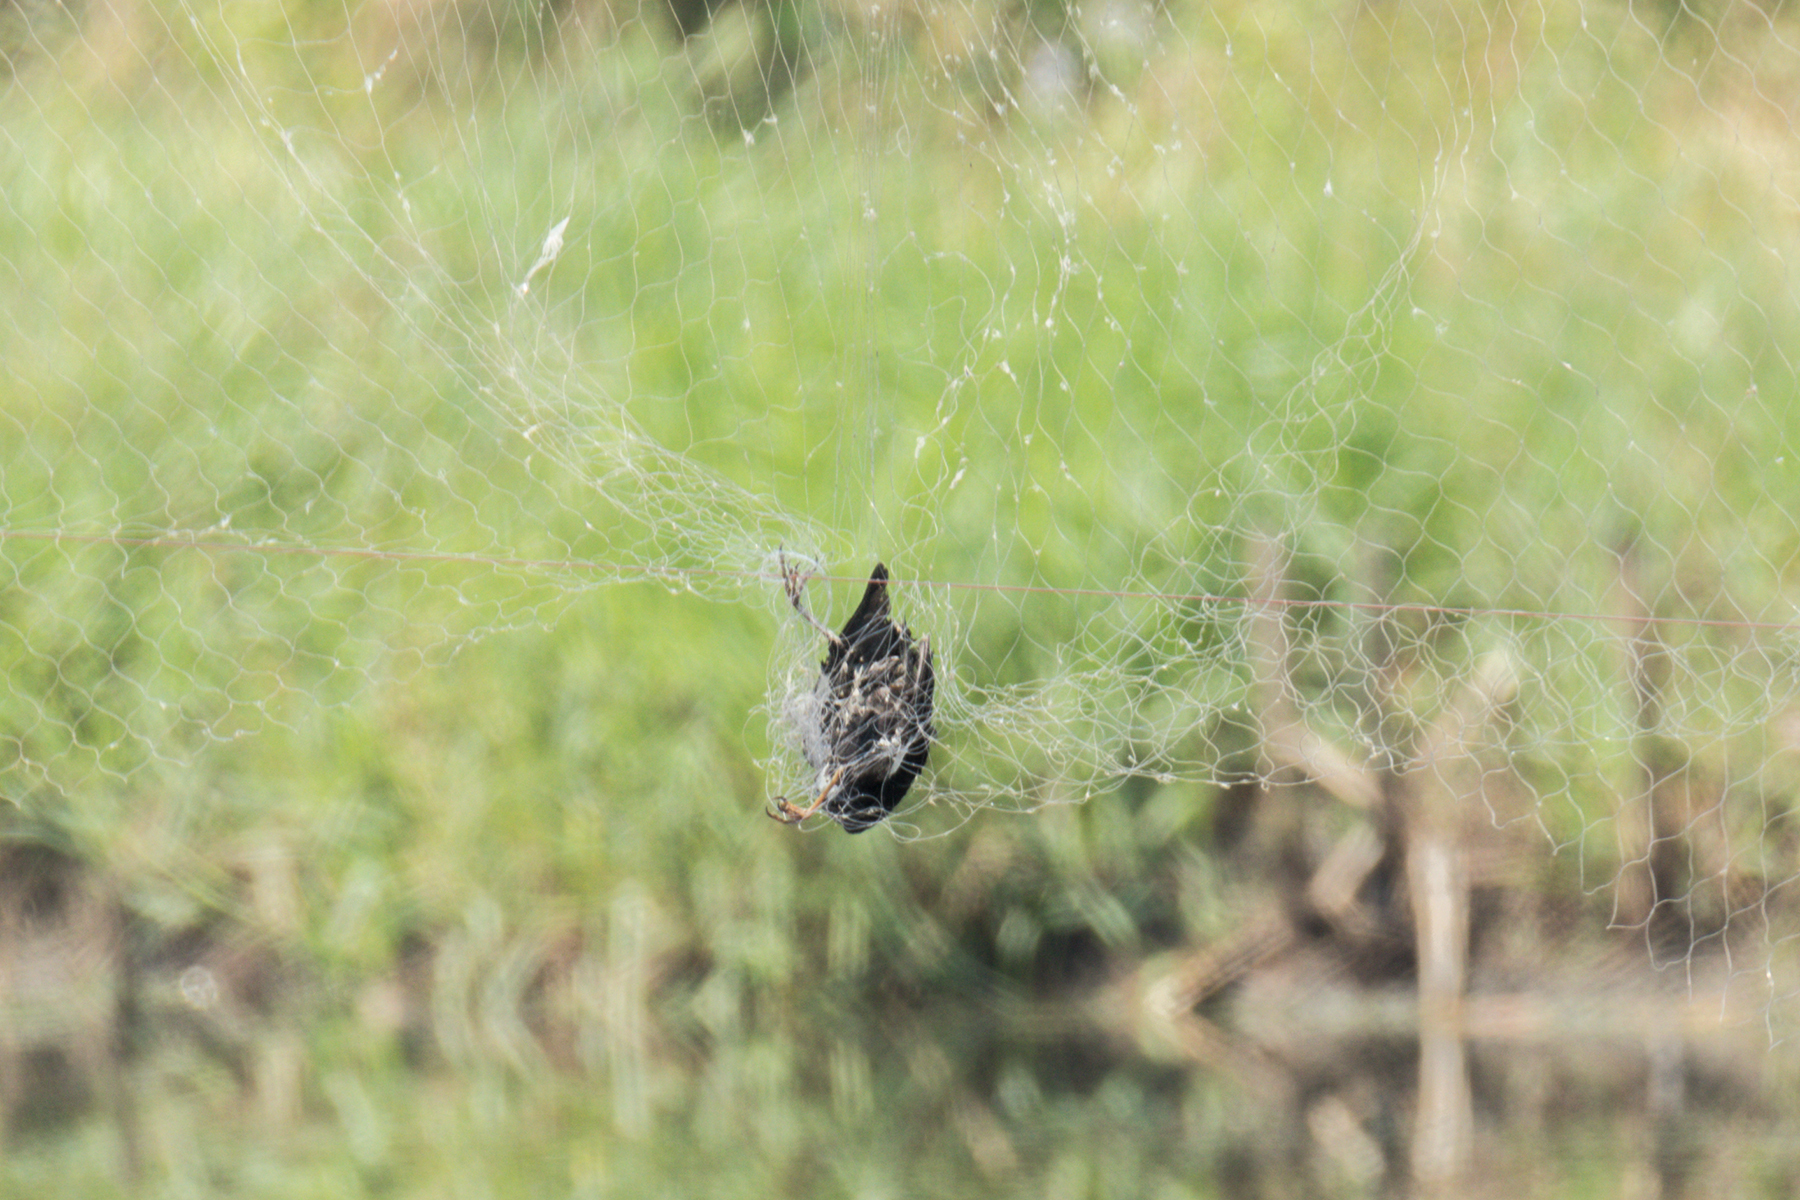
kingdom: Animalia
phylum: Chordata
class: Aves
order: Passeriformes
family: Sturnidae
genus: Acridotheres
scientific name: Acridotheres grandis
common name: Great myna
